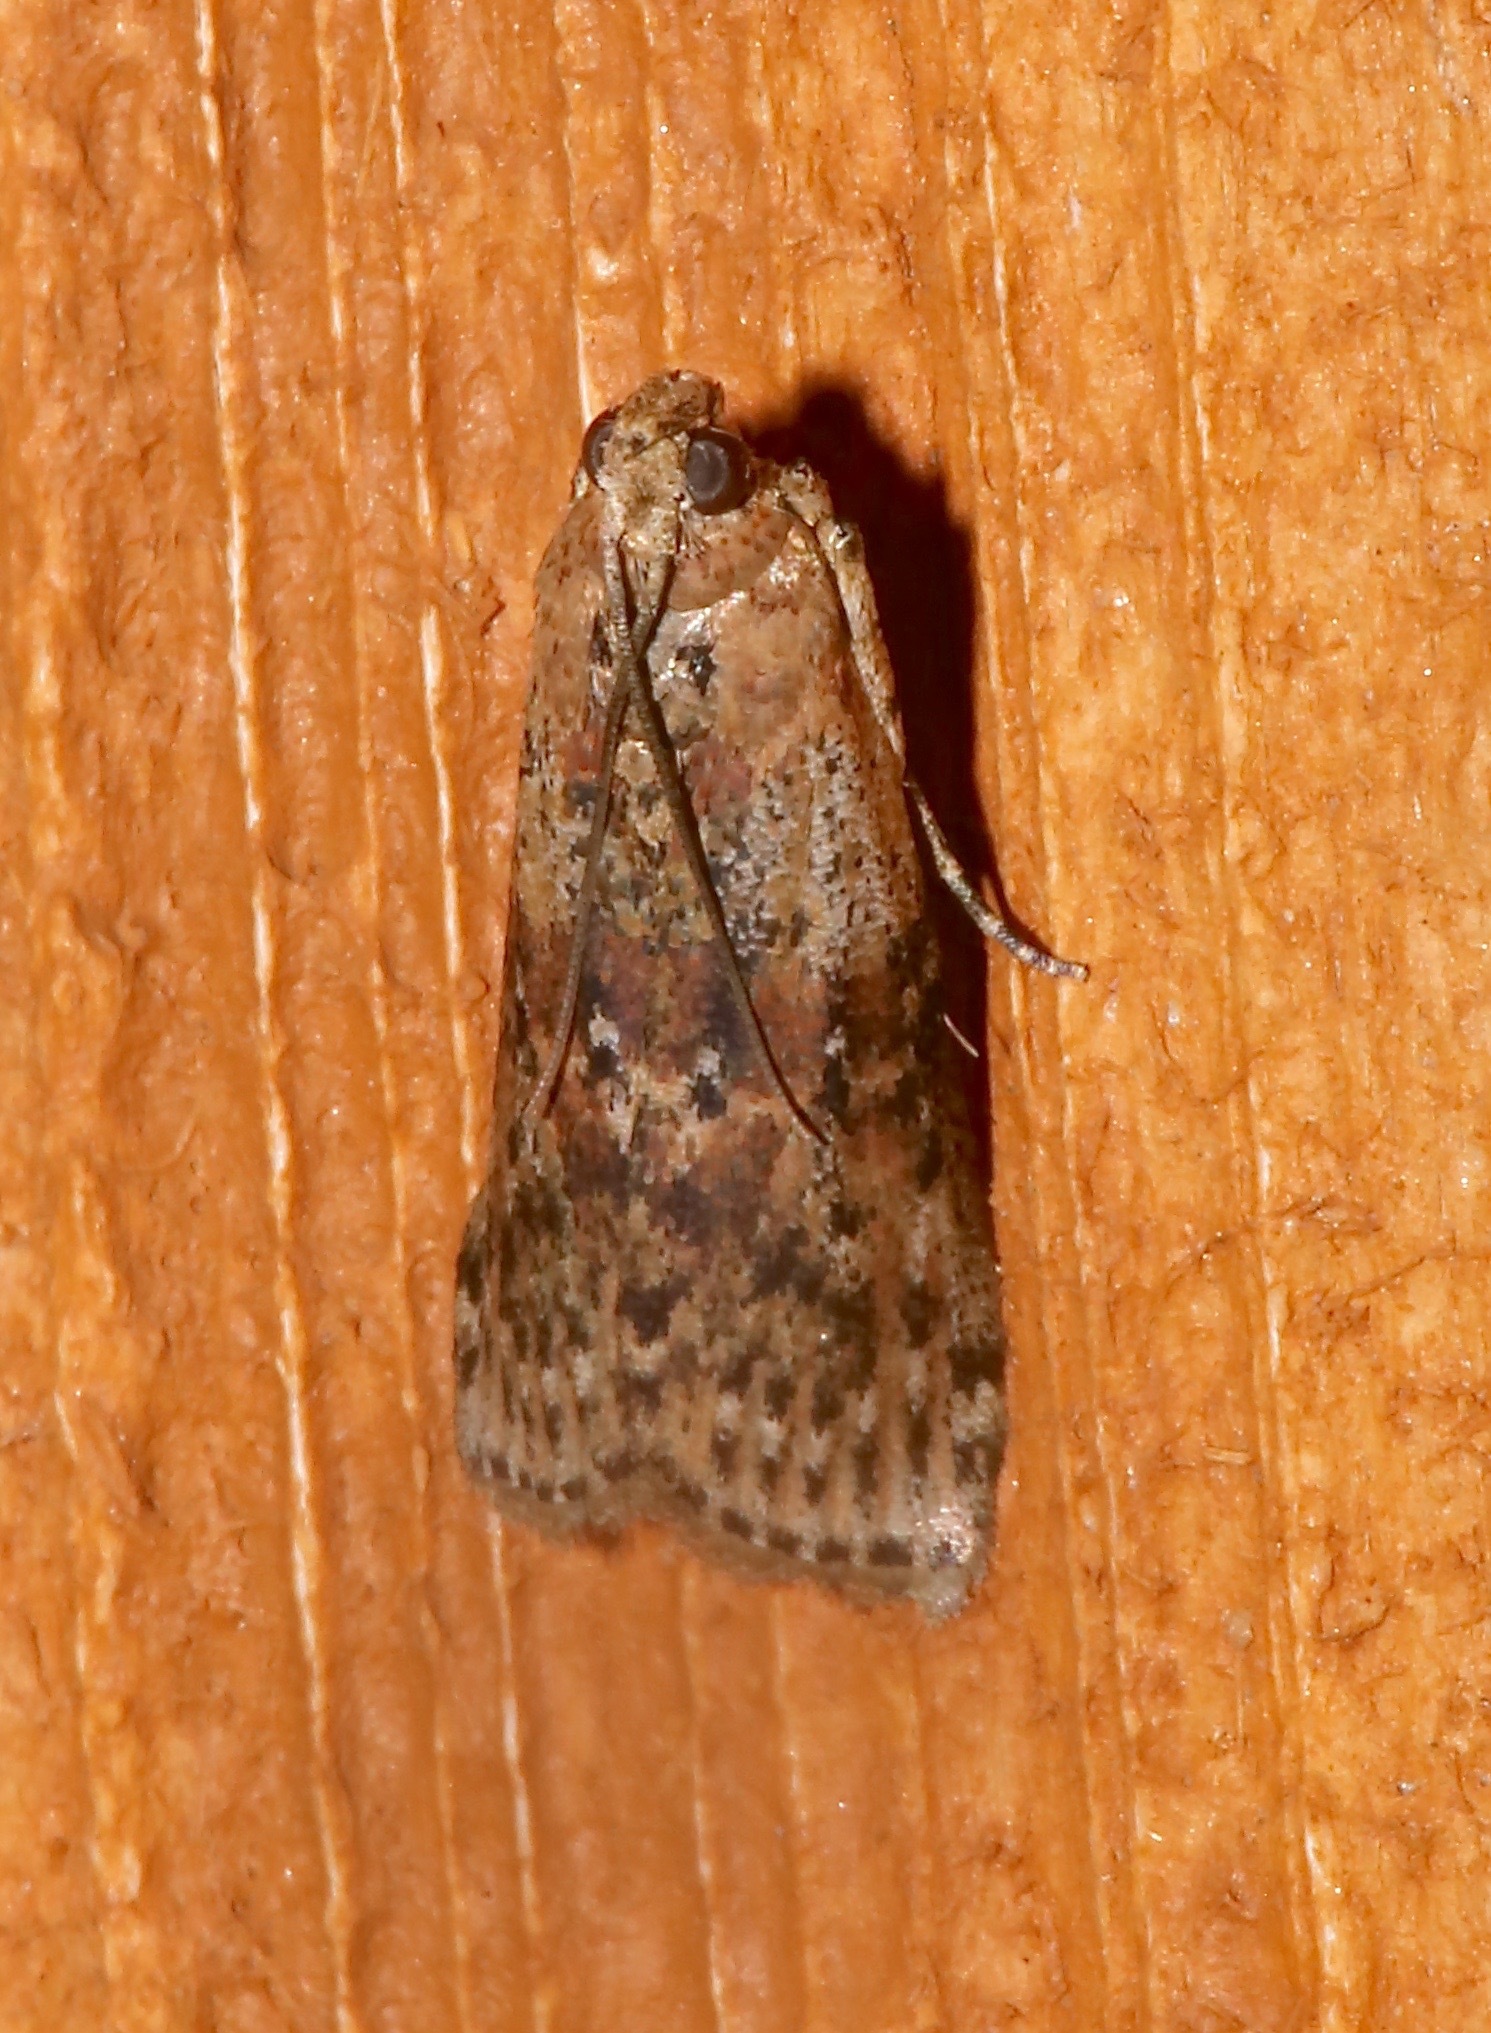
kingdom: Animalia
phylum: Arthropoda
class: Insecta
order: Lepidoptera
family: Pyralidae
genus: Sciota
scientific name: Sciota celtidella
